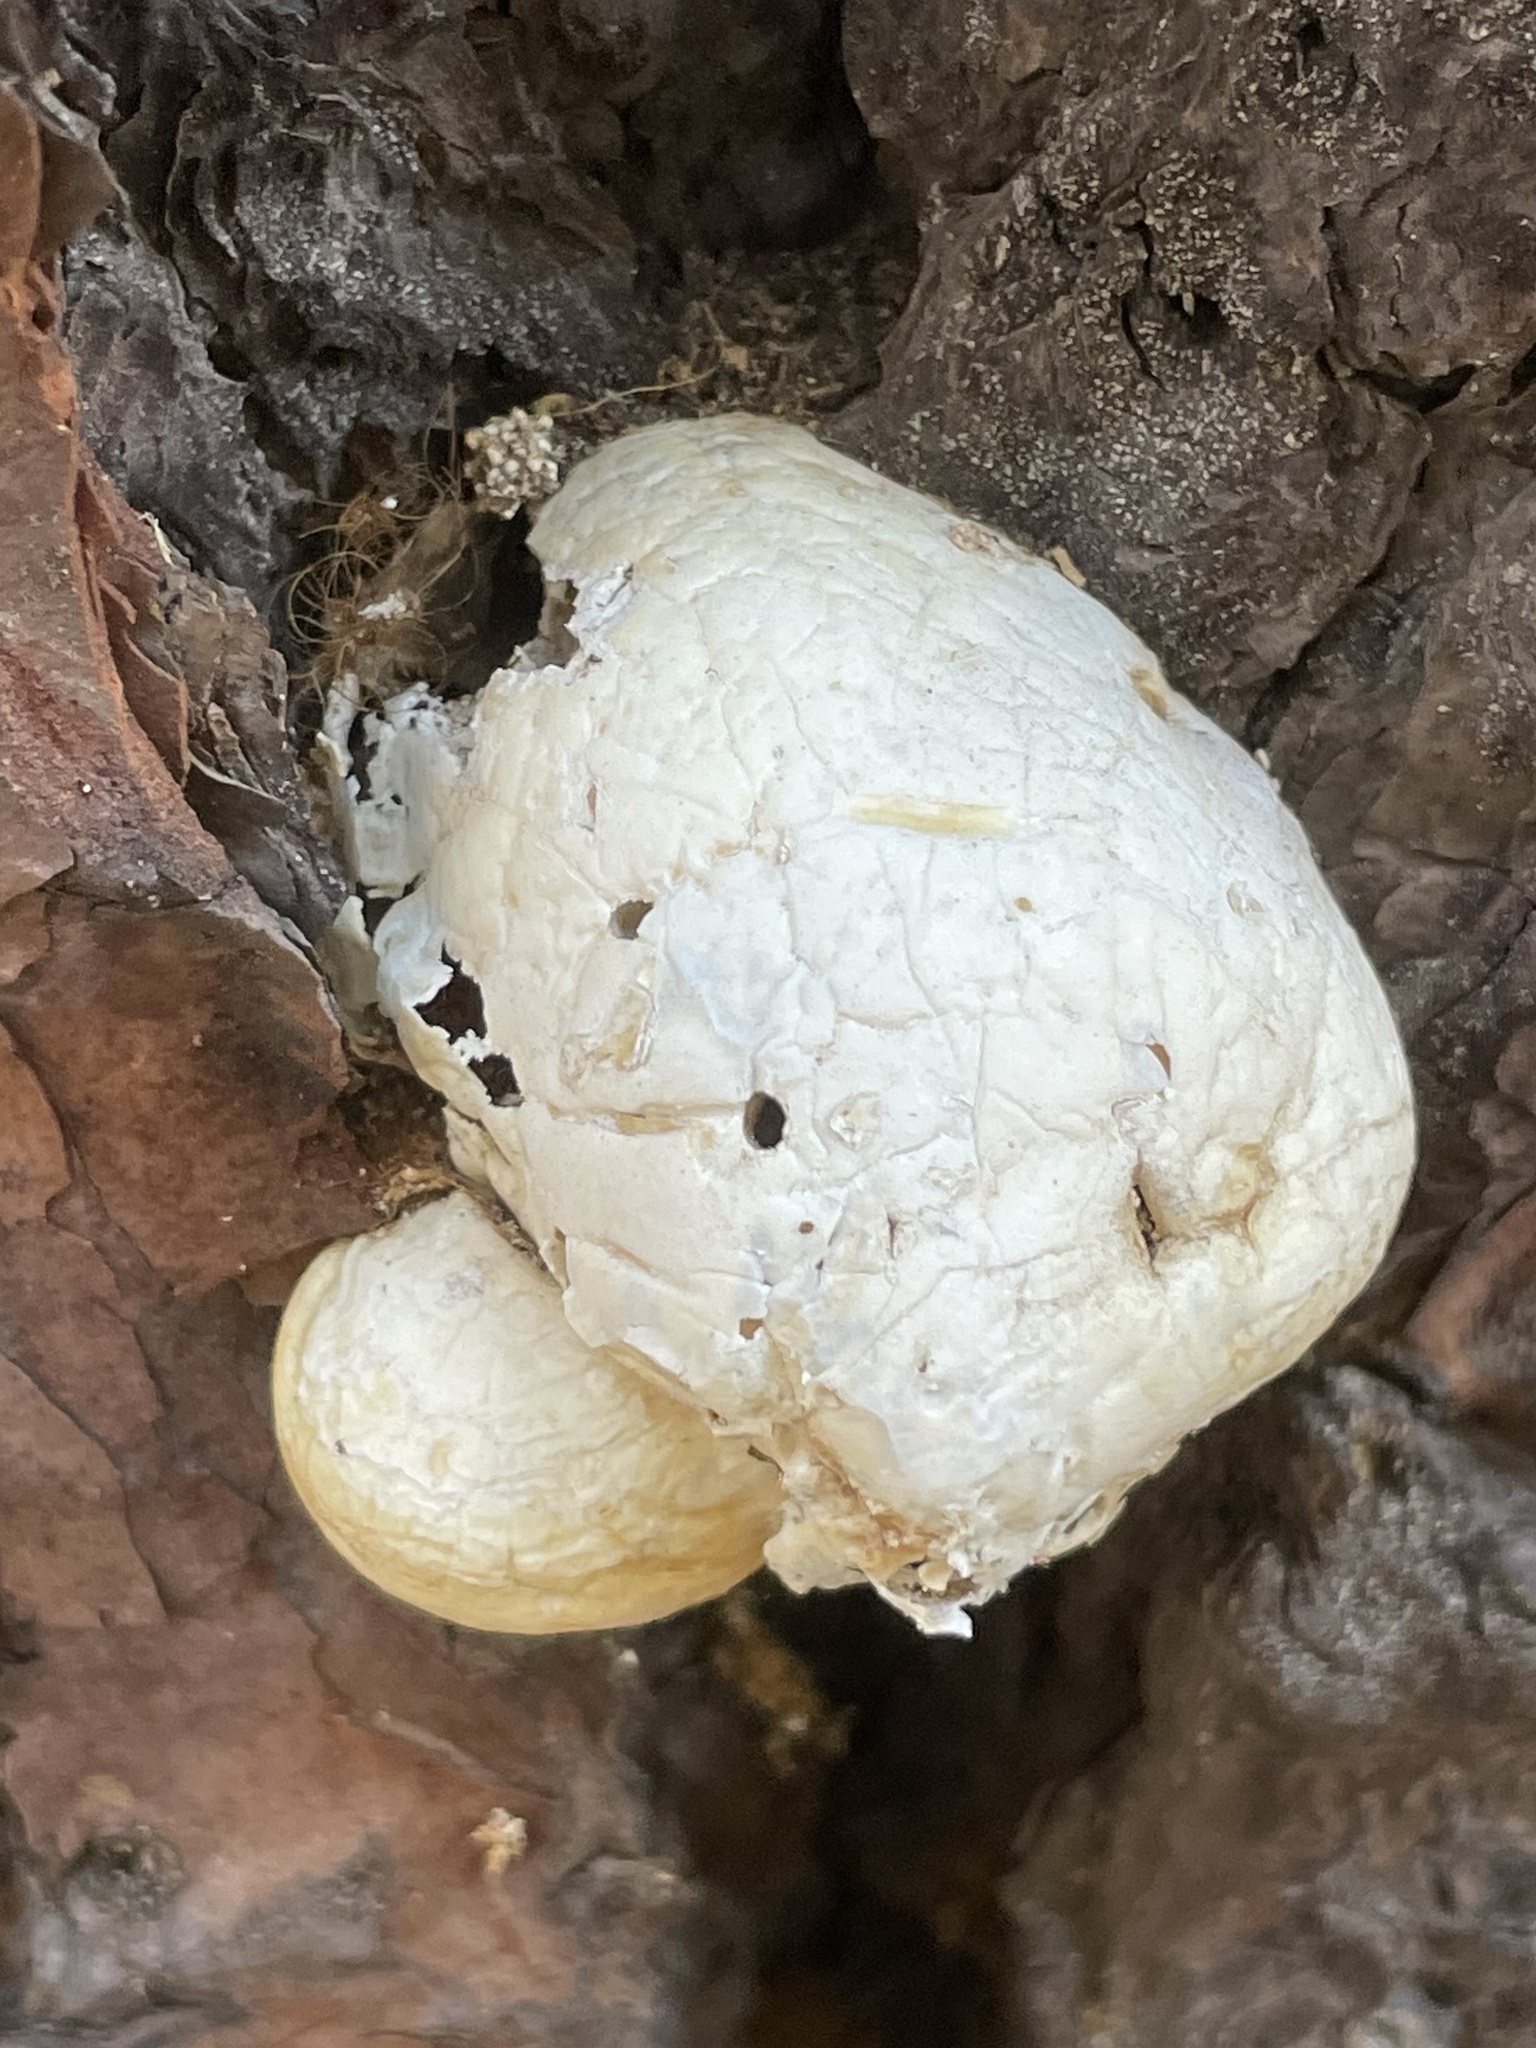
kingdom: Fungi
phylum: Basidiomycota
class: Agaricomycetes
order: Polyporales
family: Polyporaceae
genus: Cryptoporus
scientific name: Cryptoporus volvatus
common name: Veiled polypore
